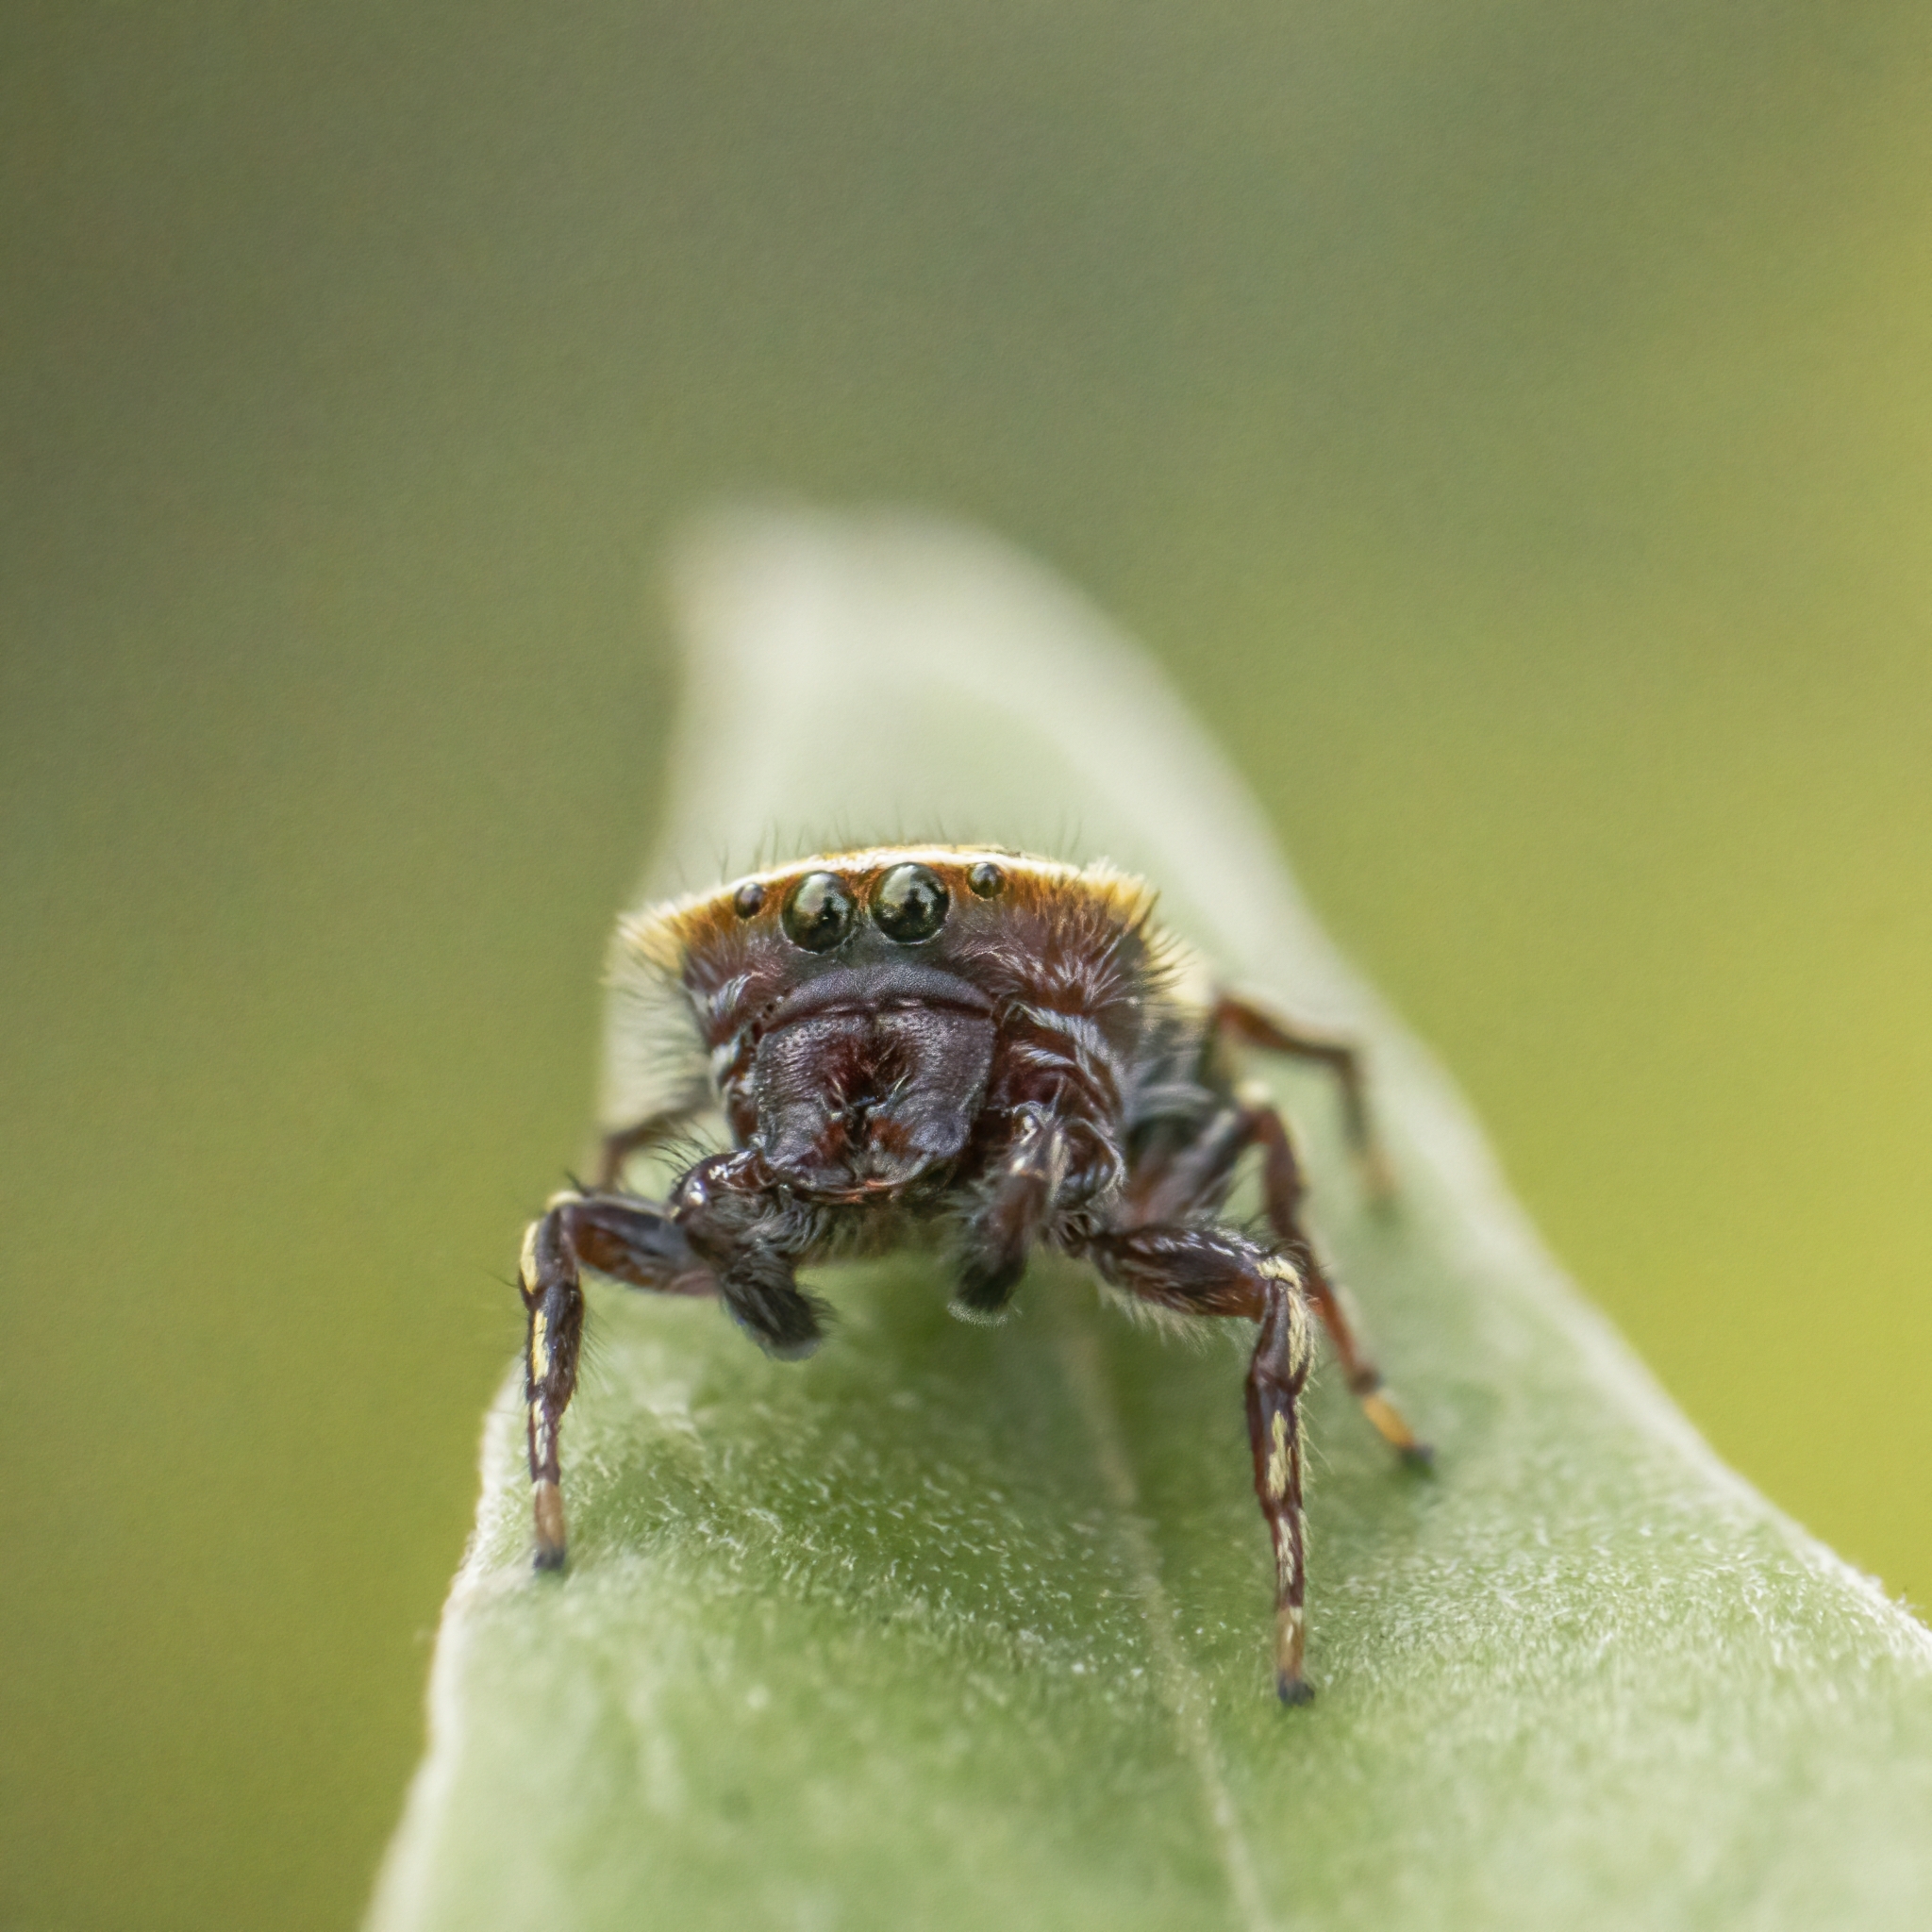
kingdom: Animalia
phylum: Arthropoda
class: Arachnida
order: Araneae
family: Salticidae
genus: Rhene
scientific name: Rhene flavicomans
